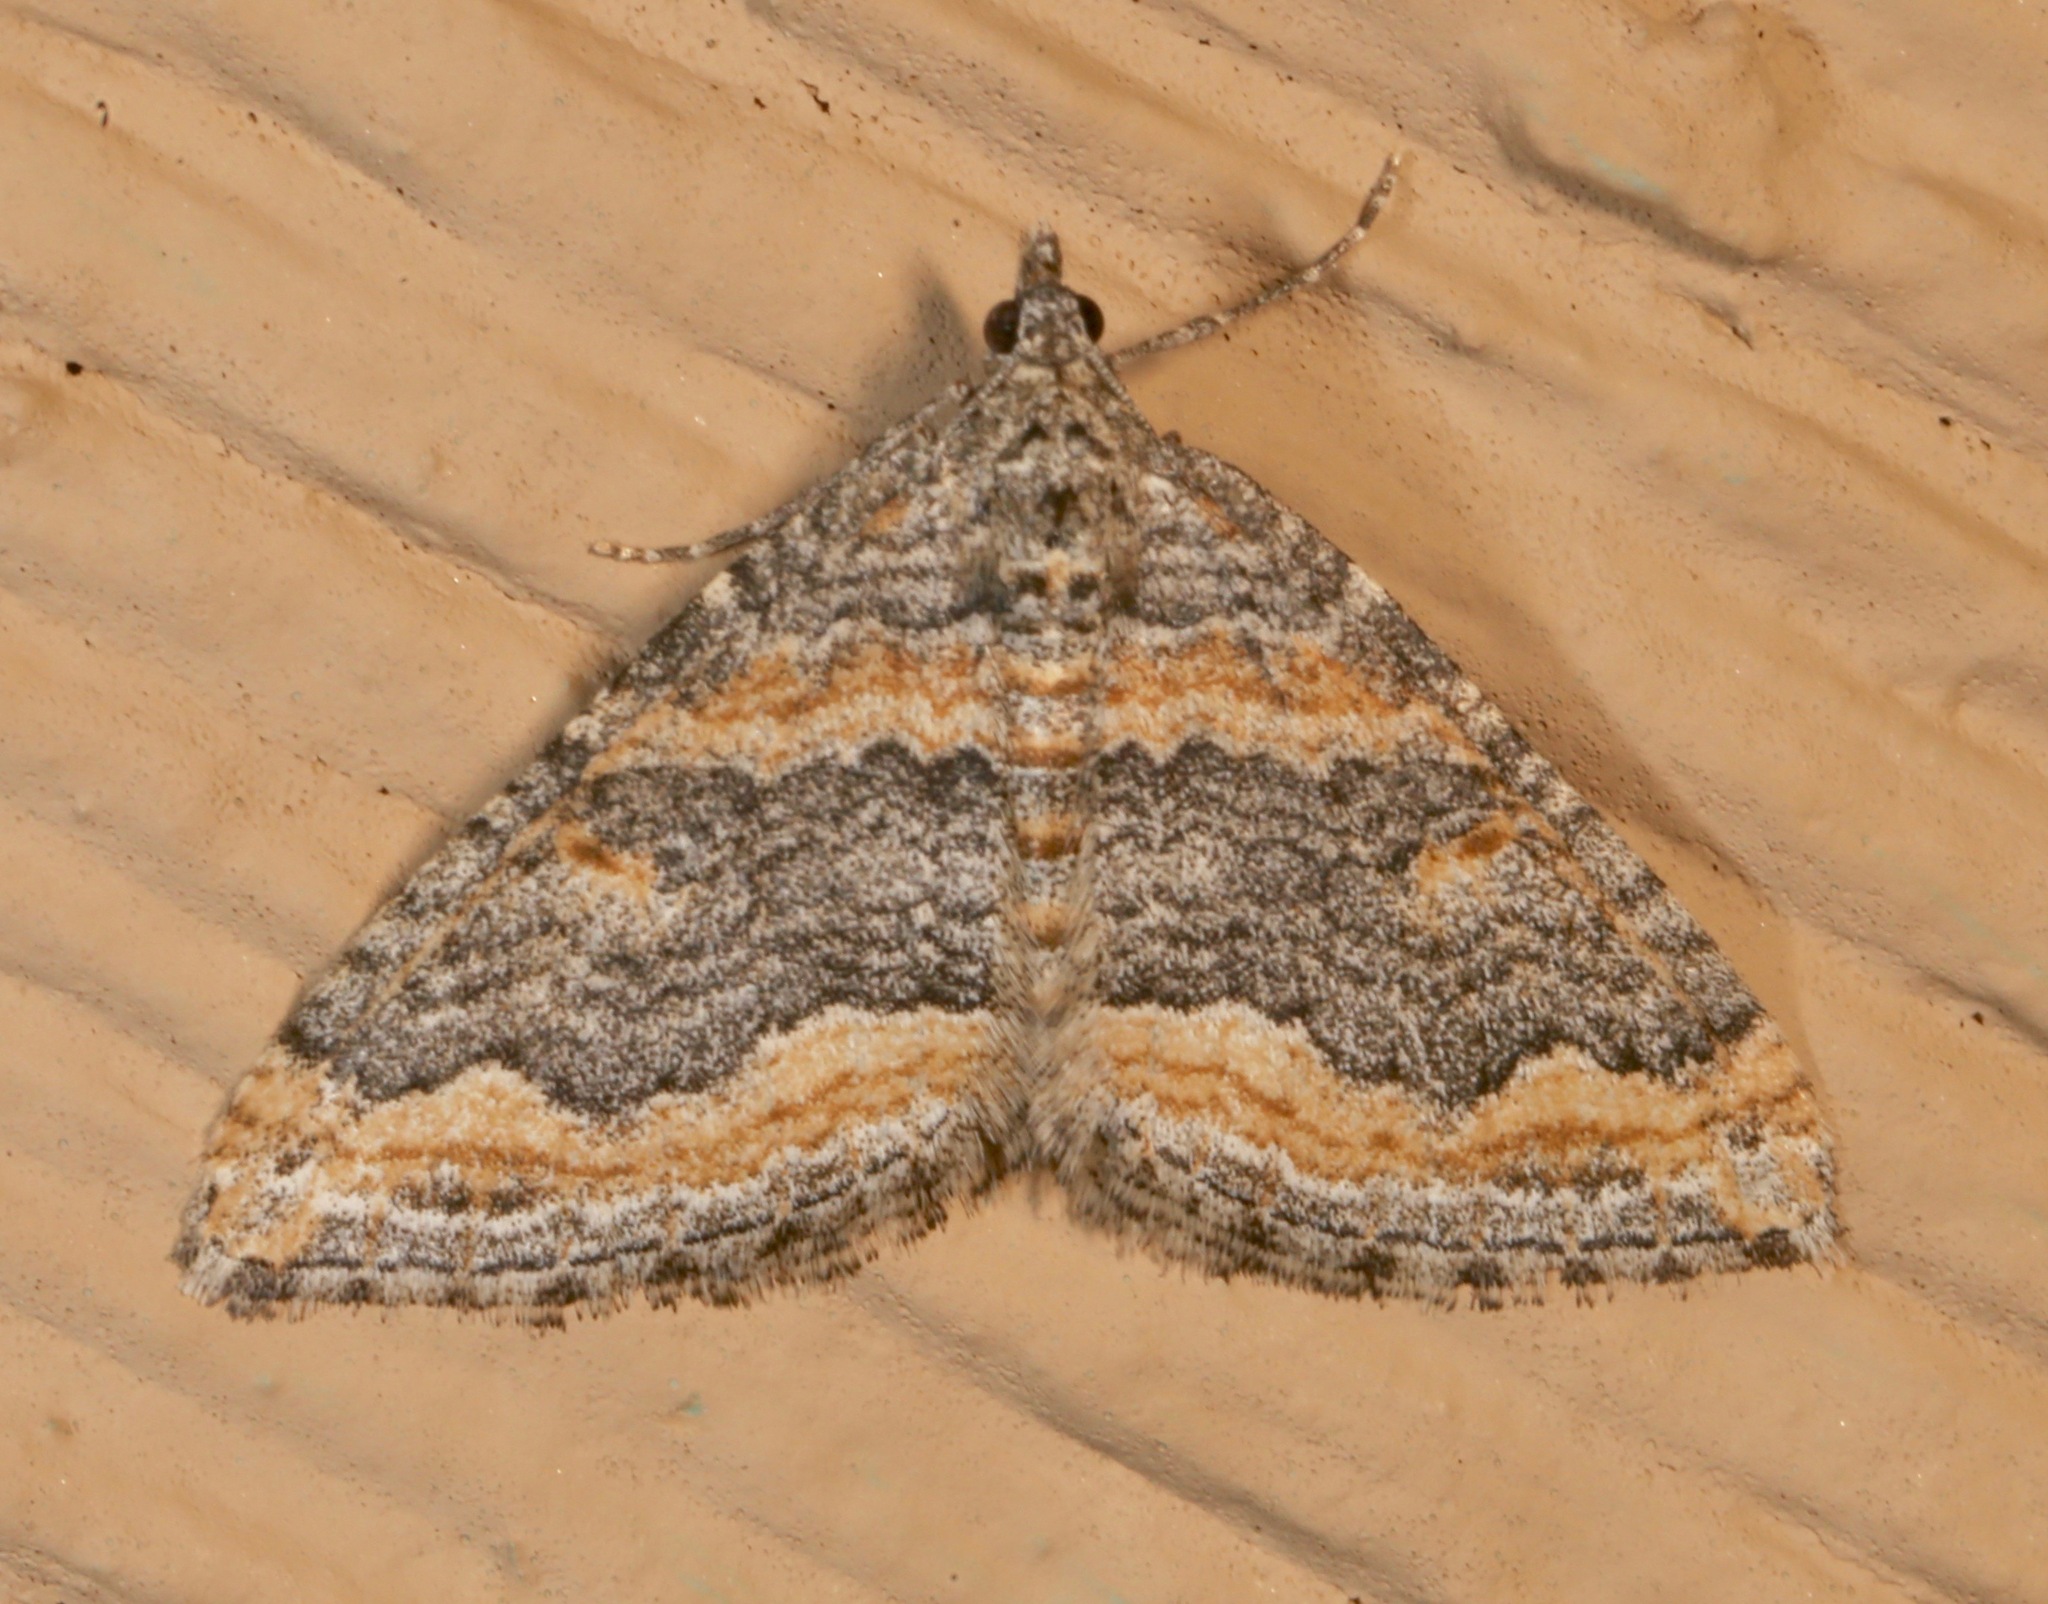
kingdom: Animalia
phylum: Arthropoda
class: Insecta
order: Lepidoptera
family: Geometridae
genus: Perizoma
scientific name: Perizoma custodiata
